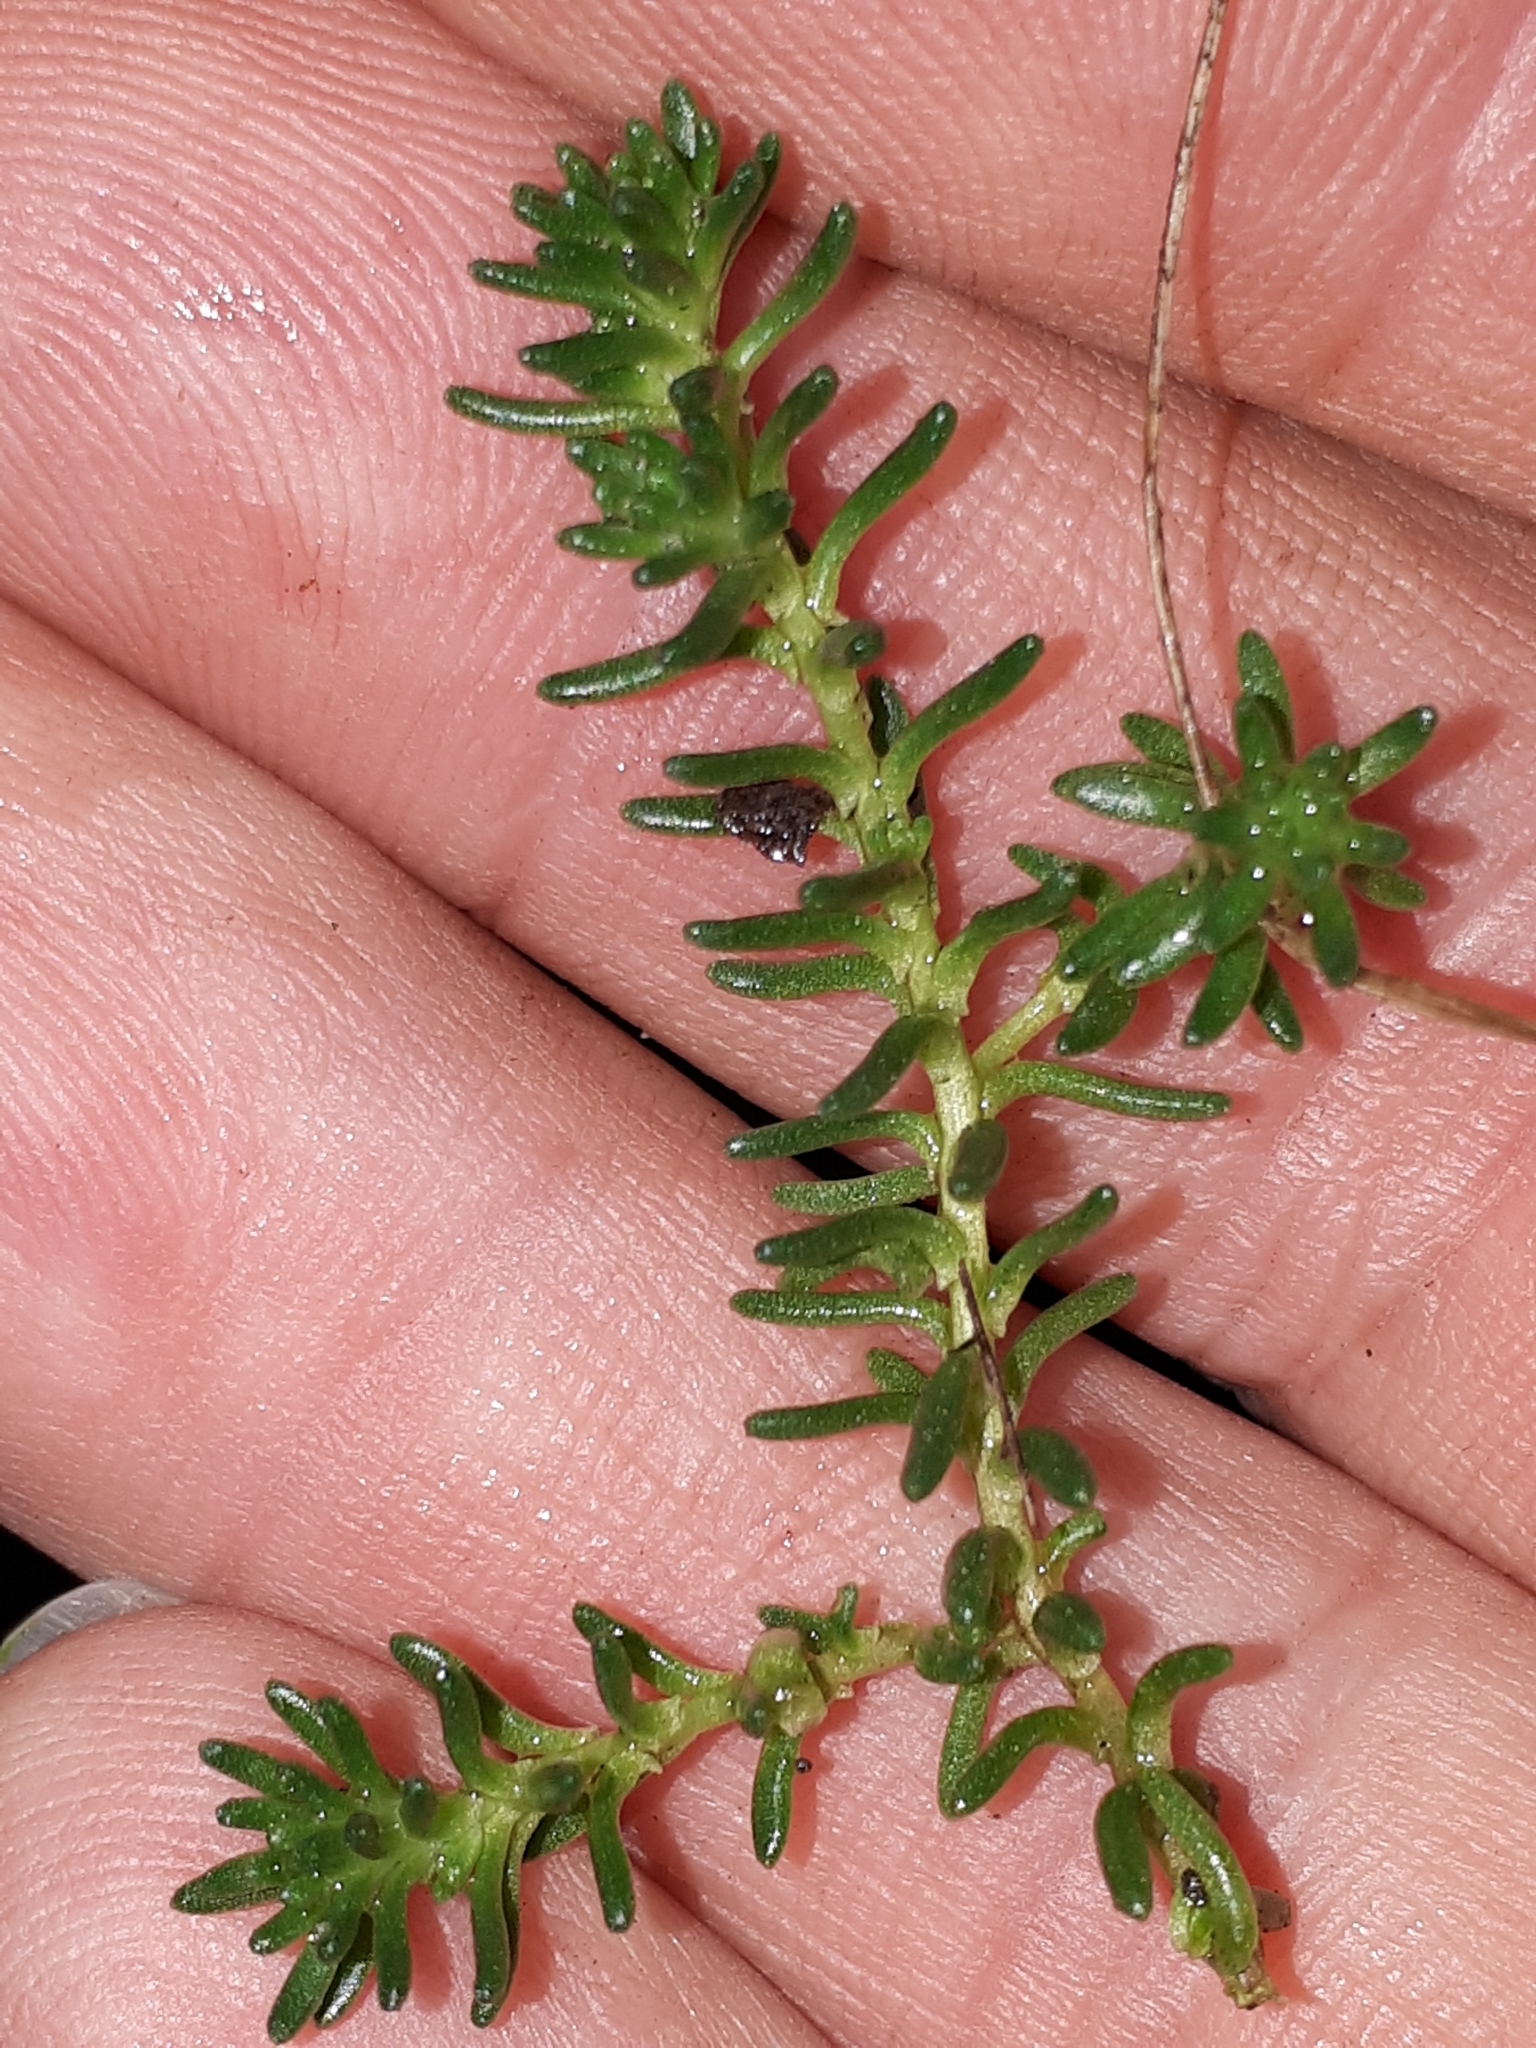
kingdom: Plantae
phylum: Tracheophyta
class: Magnoliopsida
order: Saxifragales
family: Crassulaceae
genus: Sedum
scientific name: Sedum sexangulare
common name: Tasteless stonecrop
